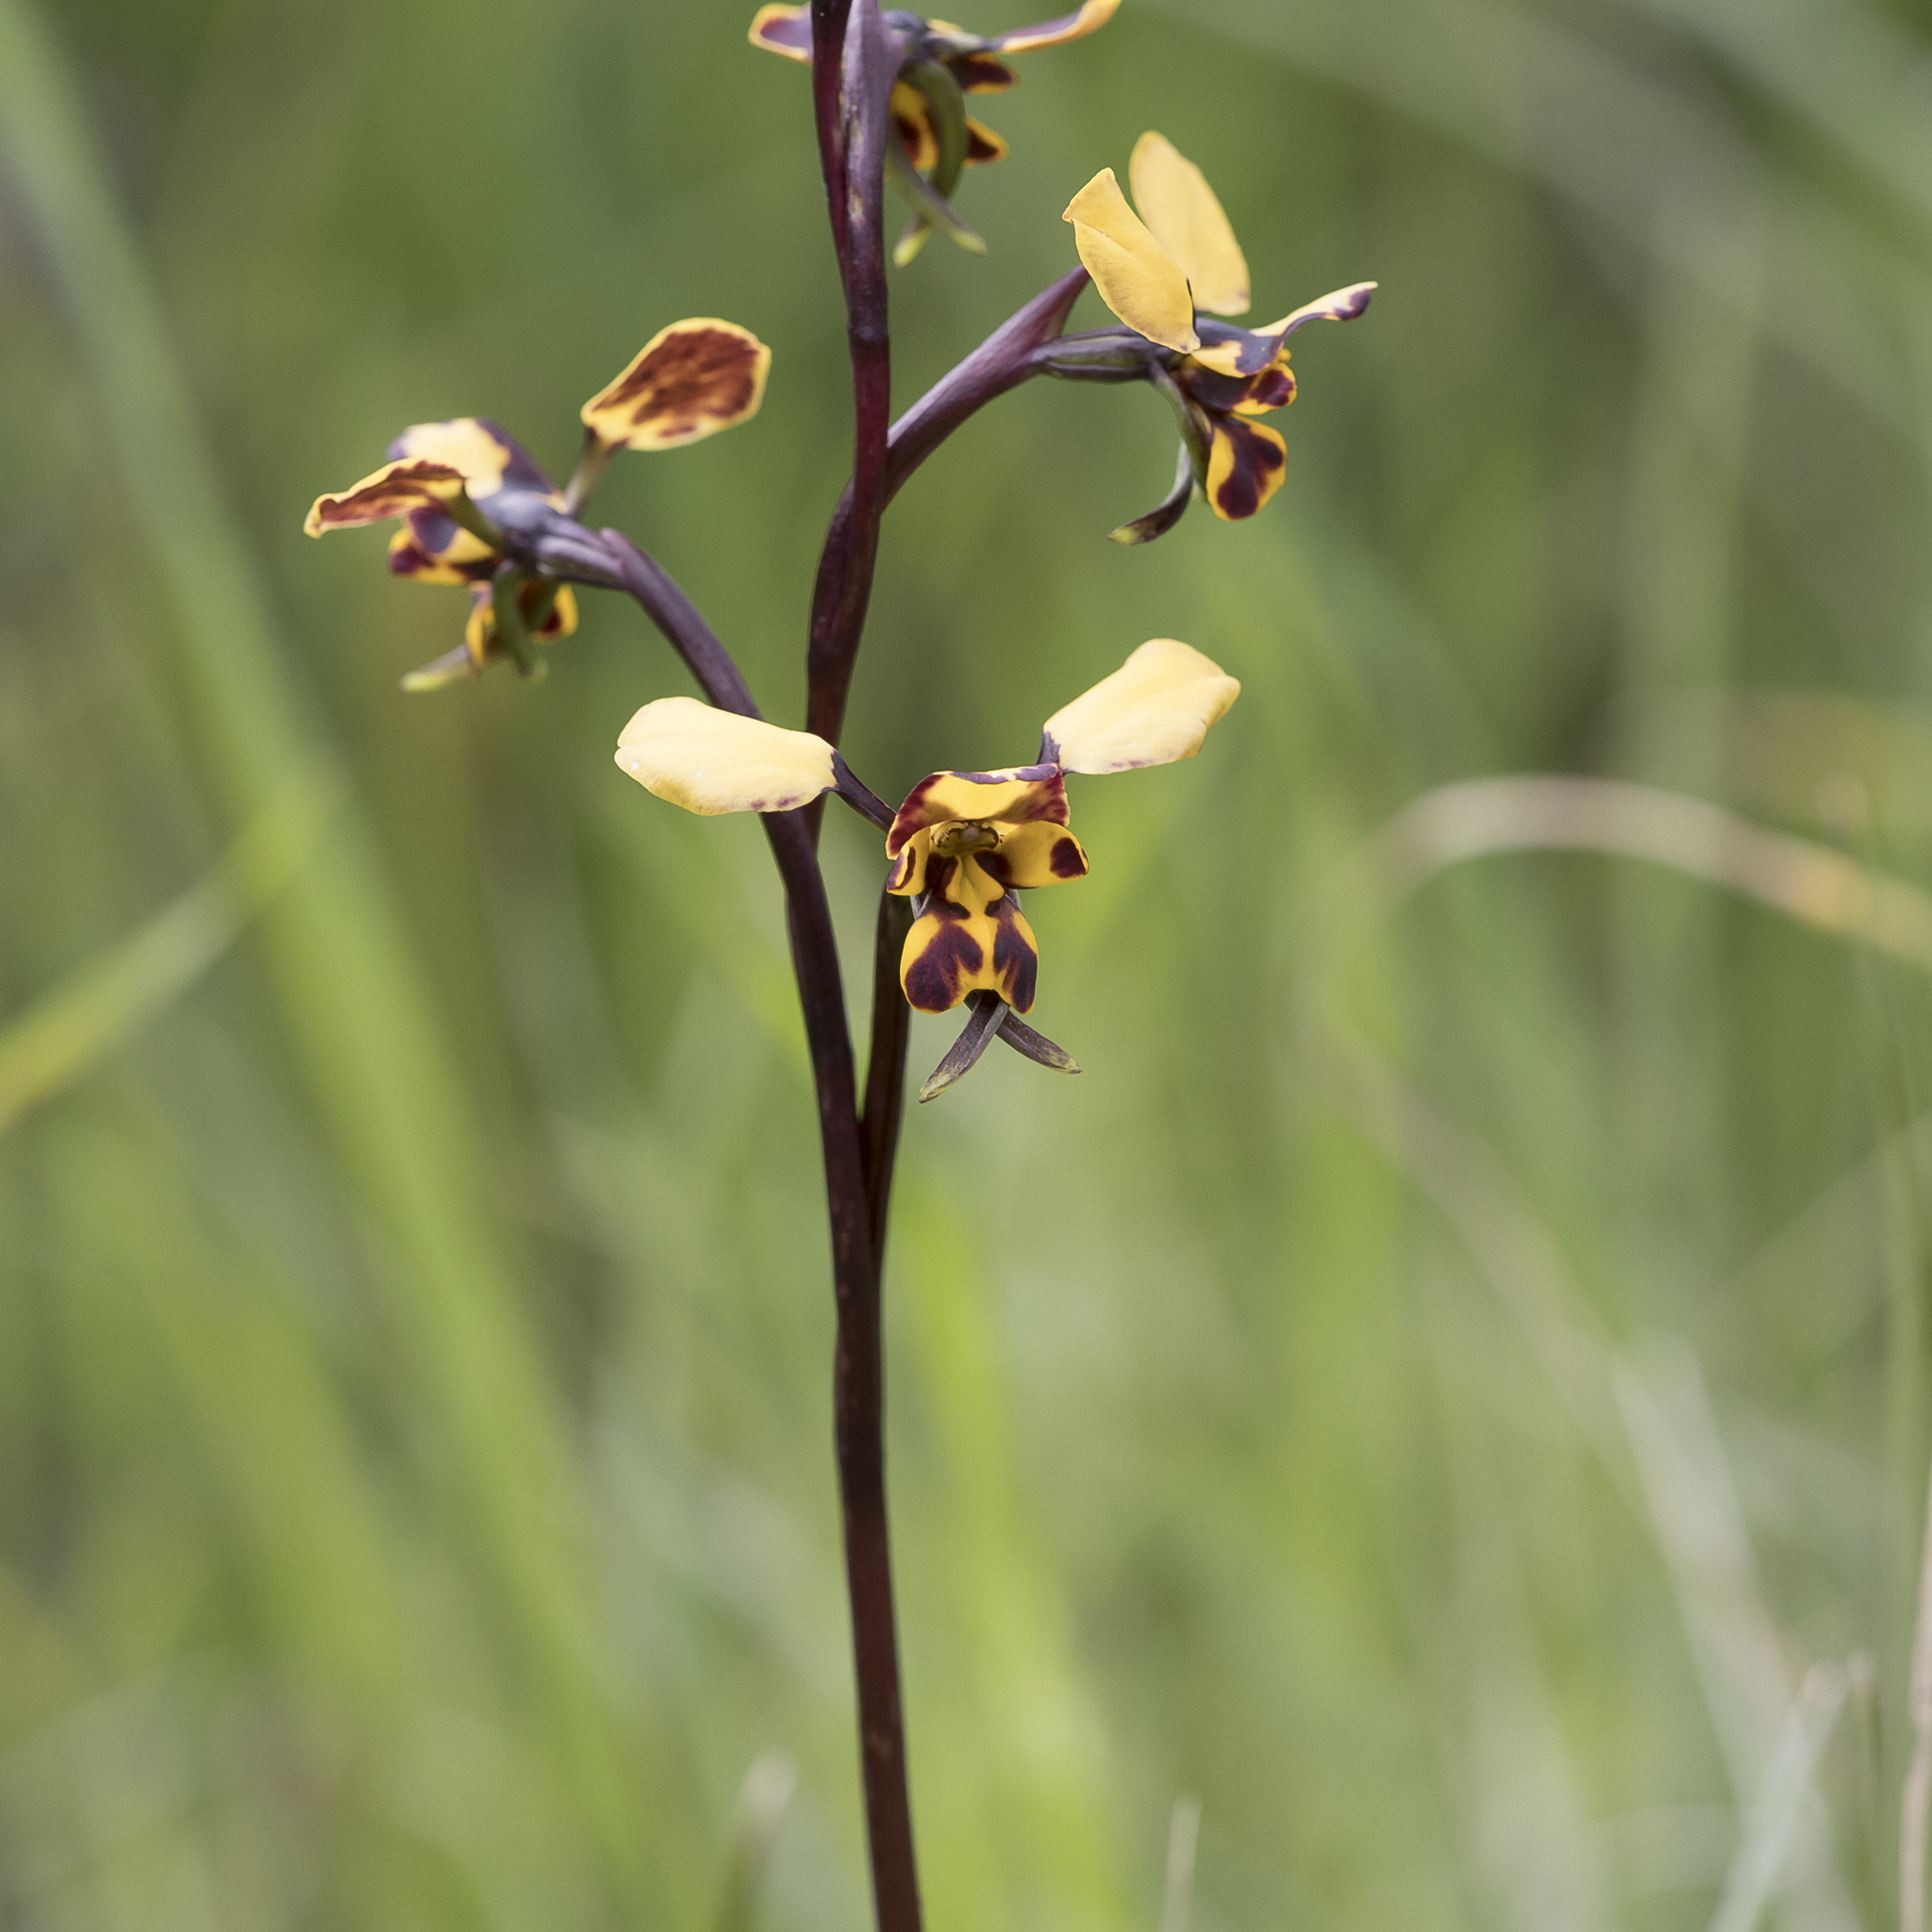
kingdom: Plantae
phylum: Tracheophyta
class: Liliopsida
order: Asparagales
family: Orchidaceae
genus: Diuris
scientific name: Diuris pardina
